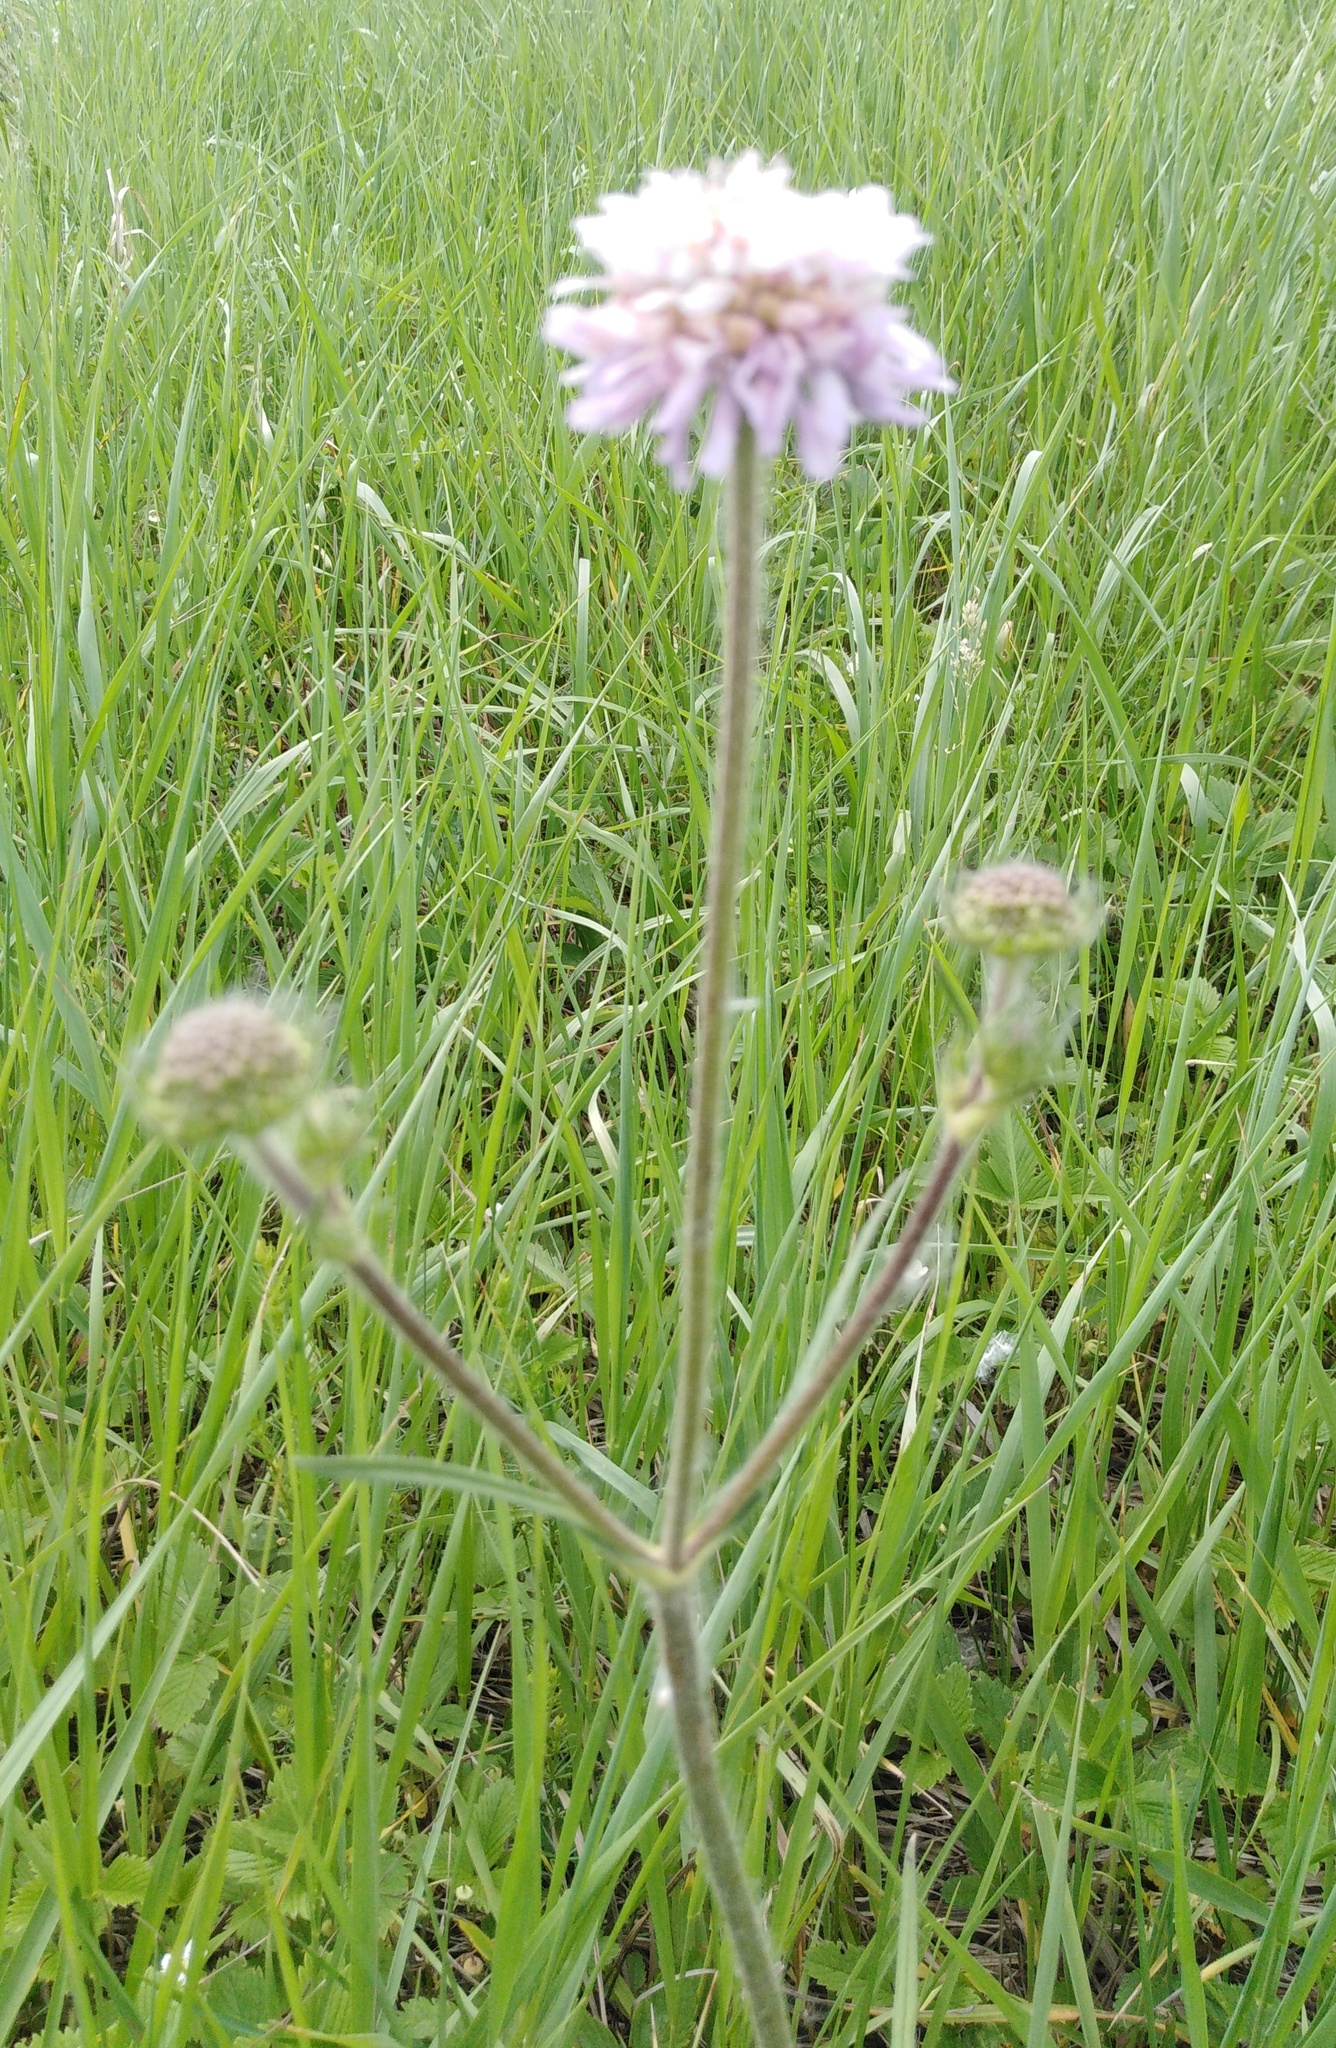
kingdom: Plantae
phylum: Tracheophyta
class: Magnoliopsida
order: Dipsacales
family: Caprifoliaceae
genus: Knautia
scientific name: Knautia arvensis
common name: Field scabiosa
